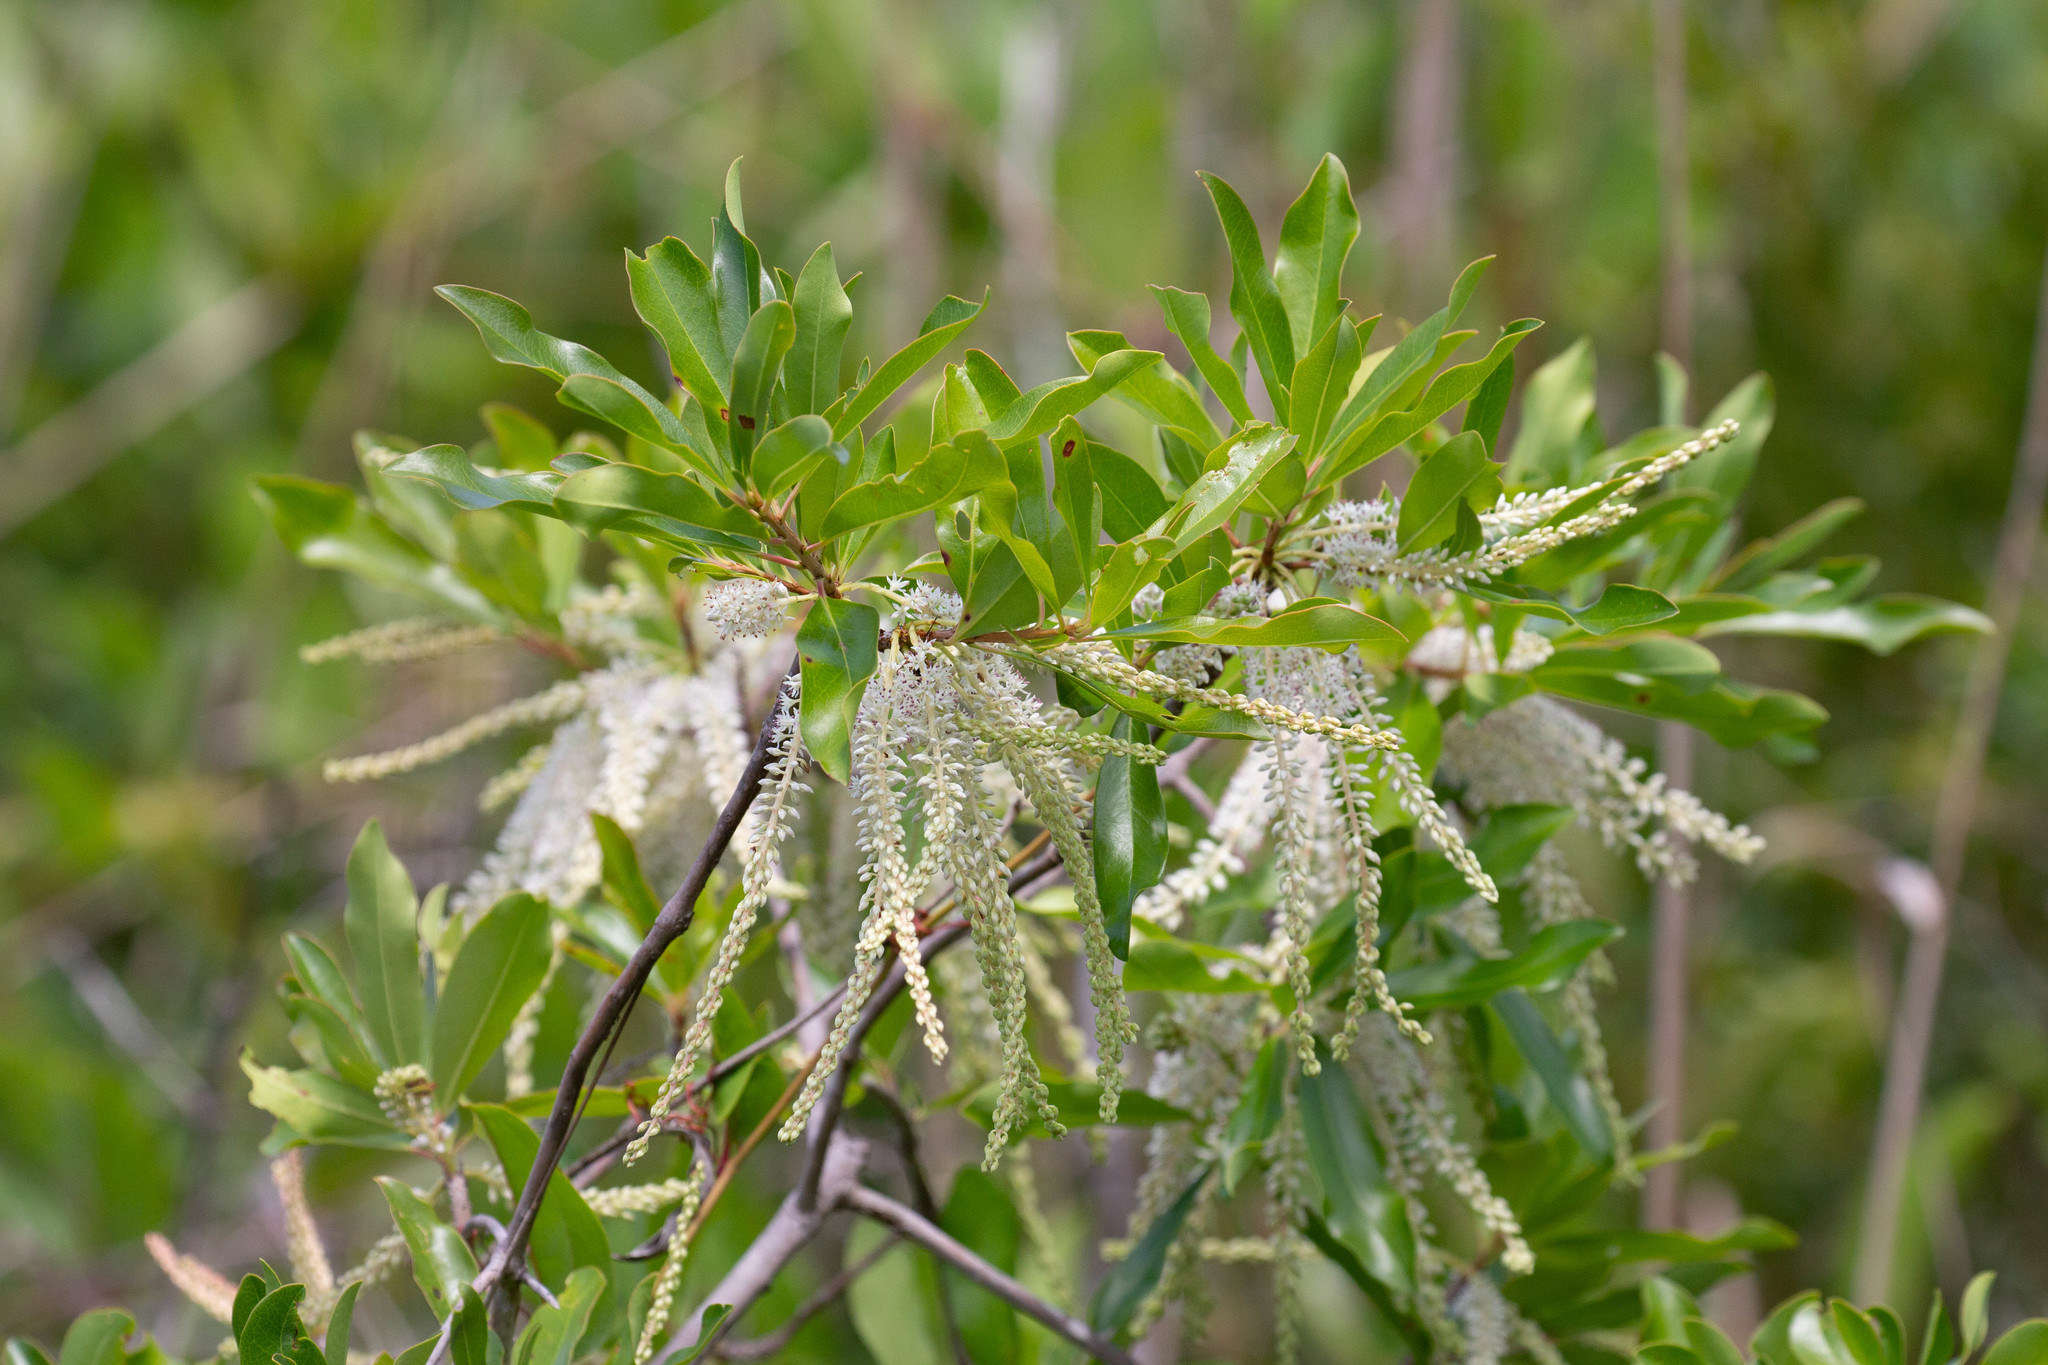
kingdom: Plantae
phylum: Tracheophyta
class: Magnoliopsida
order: Ericales
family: Cyrillaceae
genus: Cyrilla
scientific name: Cyrilla racemiflora
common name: Black titi
